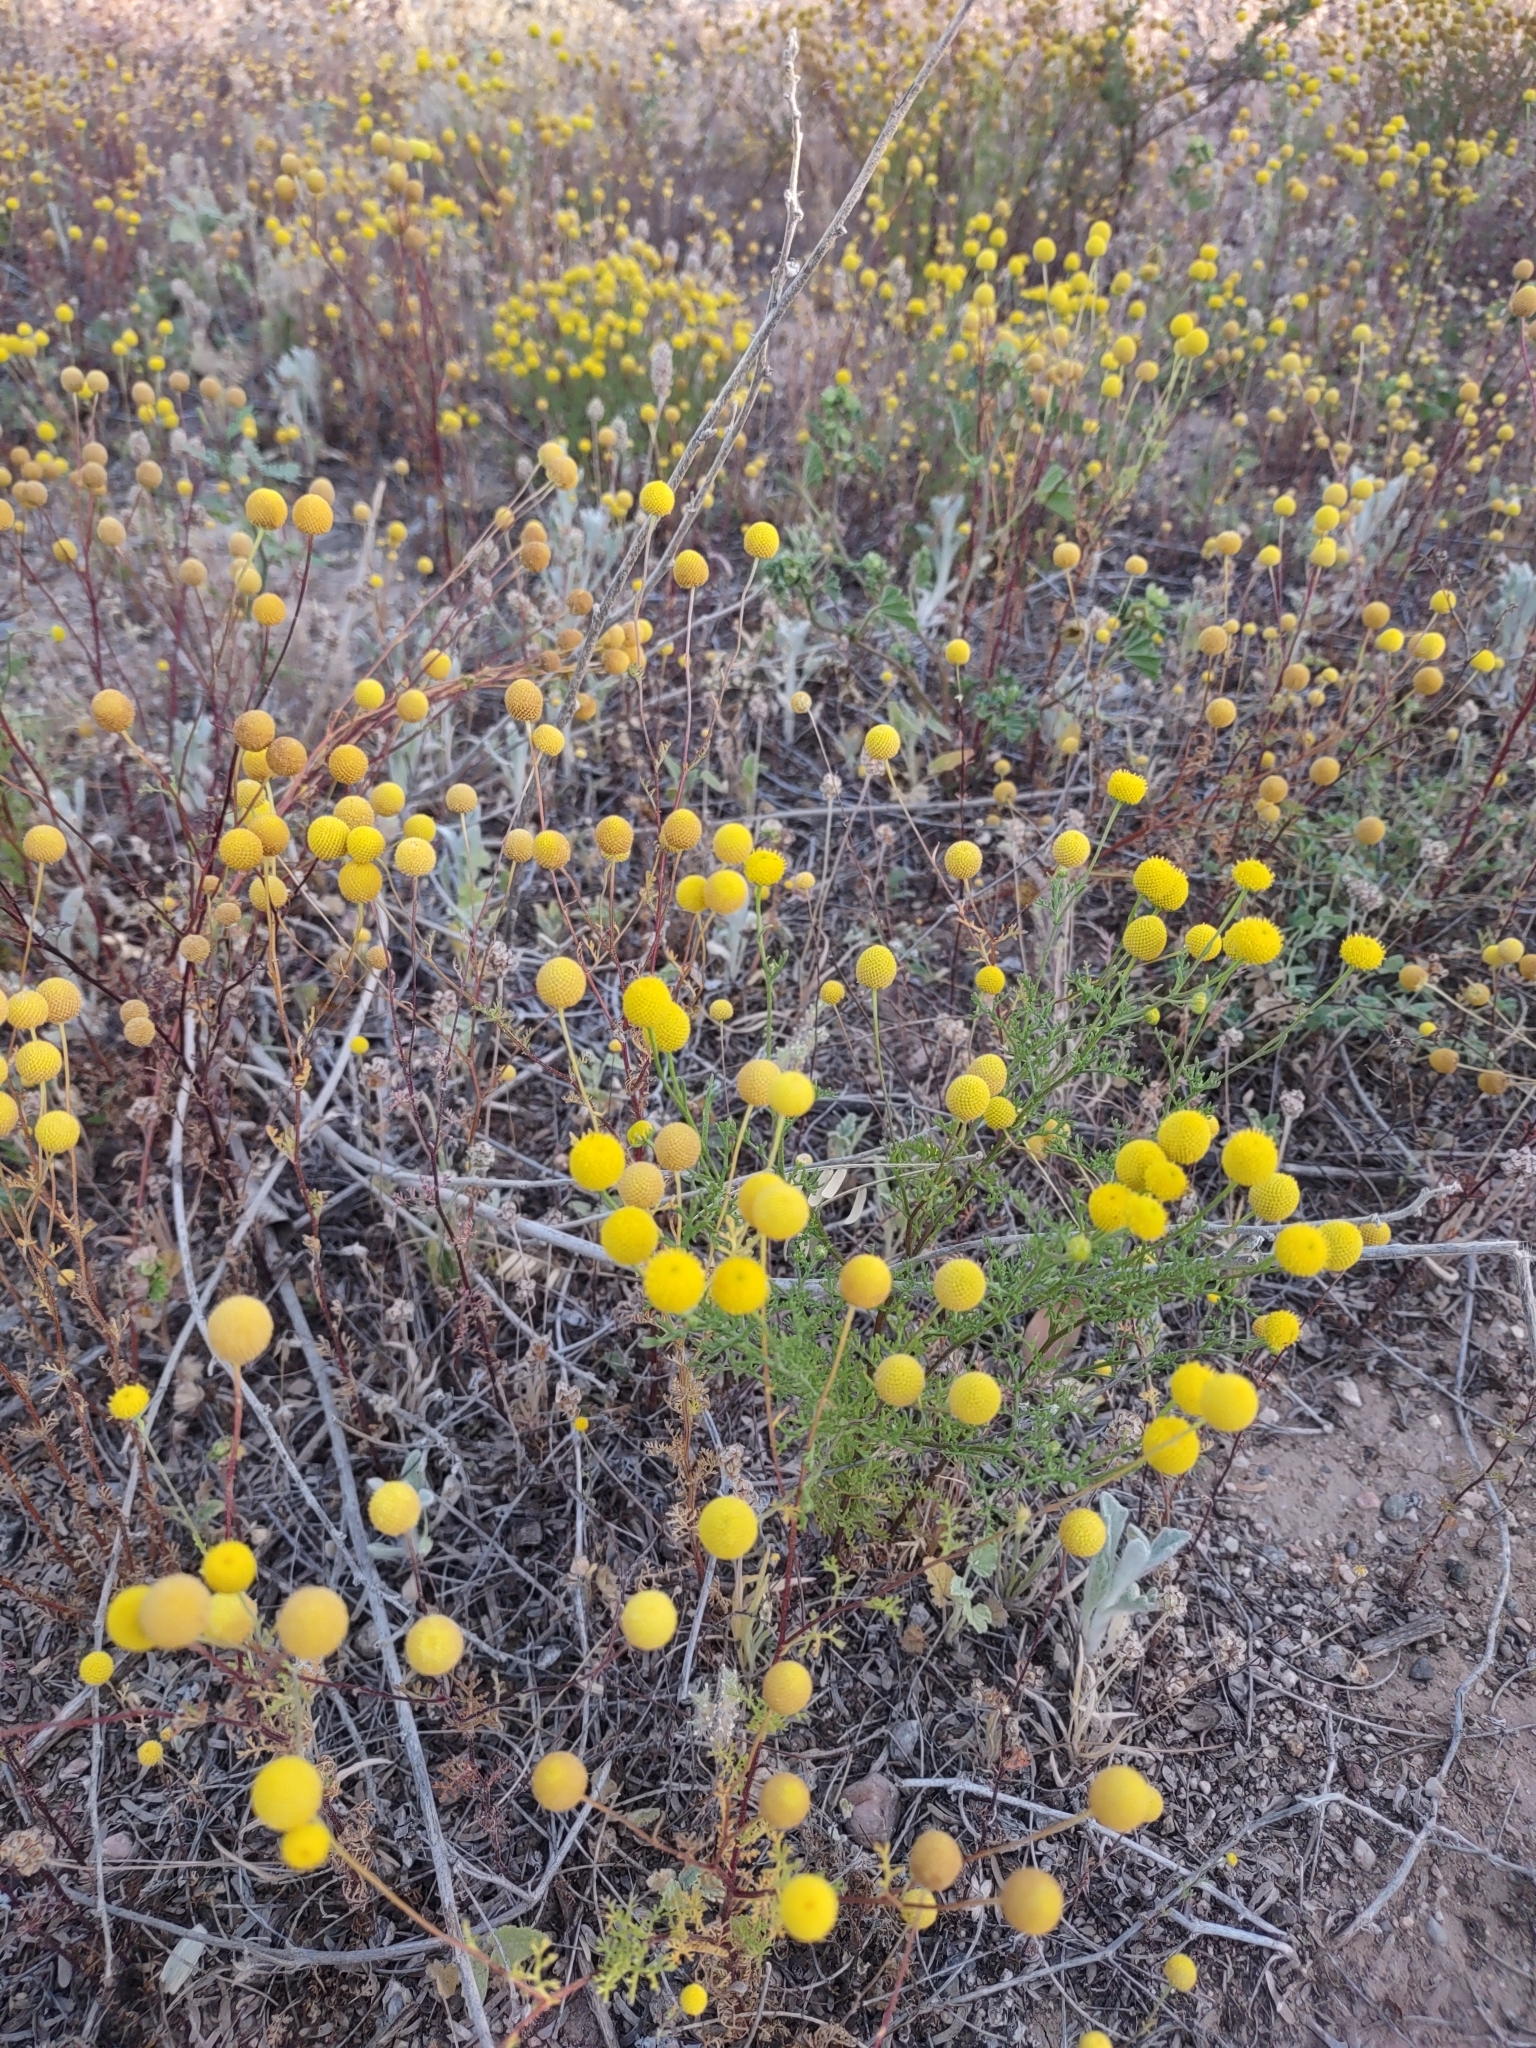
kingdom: Plantae
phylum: Tracheophyta
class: Magnoliopsida
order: Asterales
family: Asteraceae
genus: Oncosiphon
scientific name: Oncosiphon pilulifer
